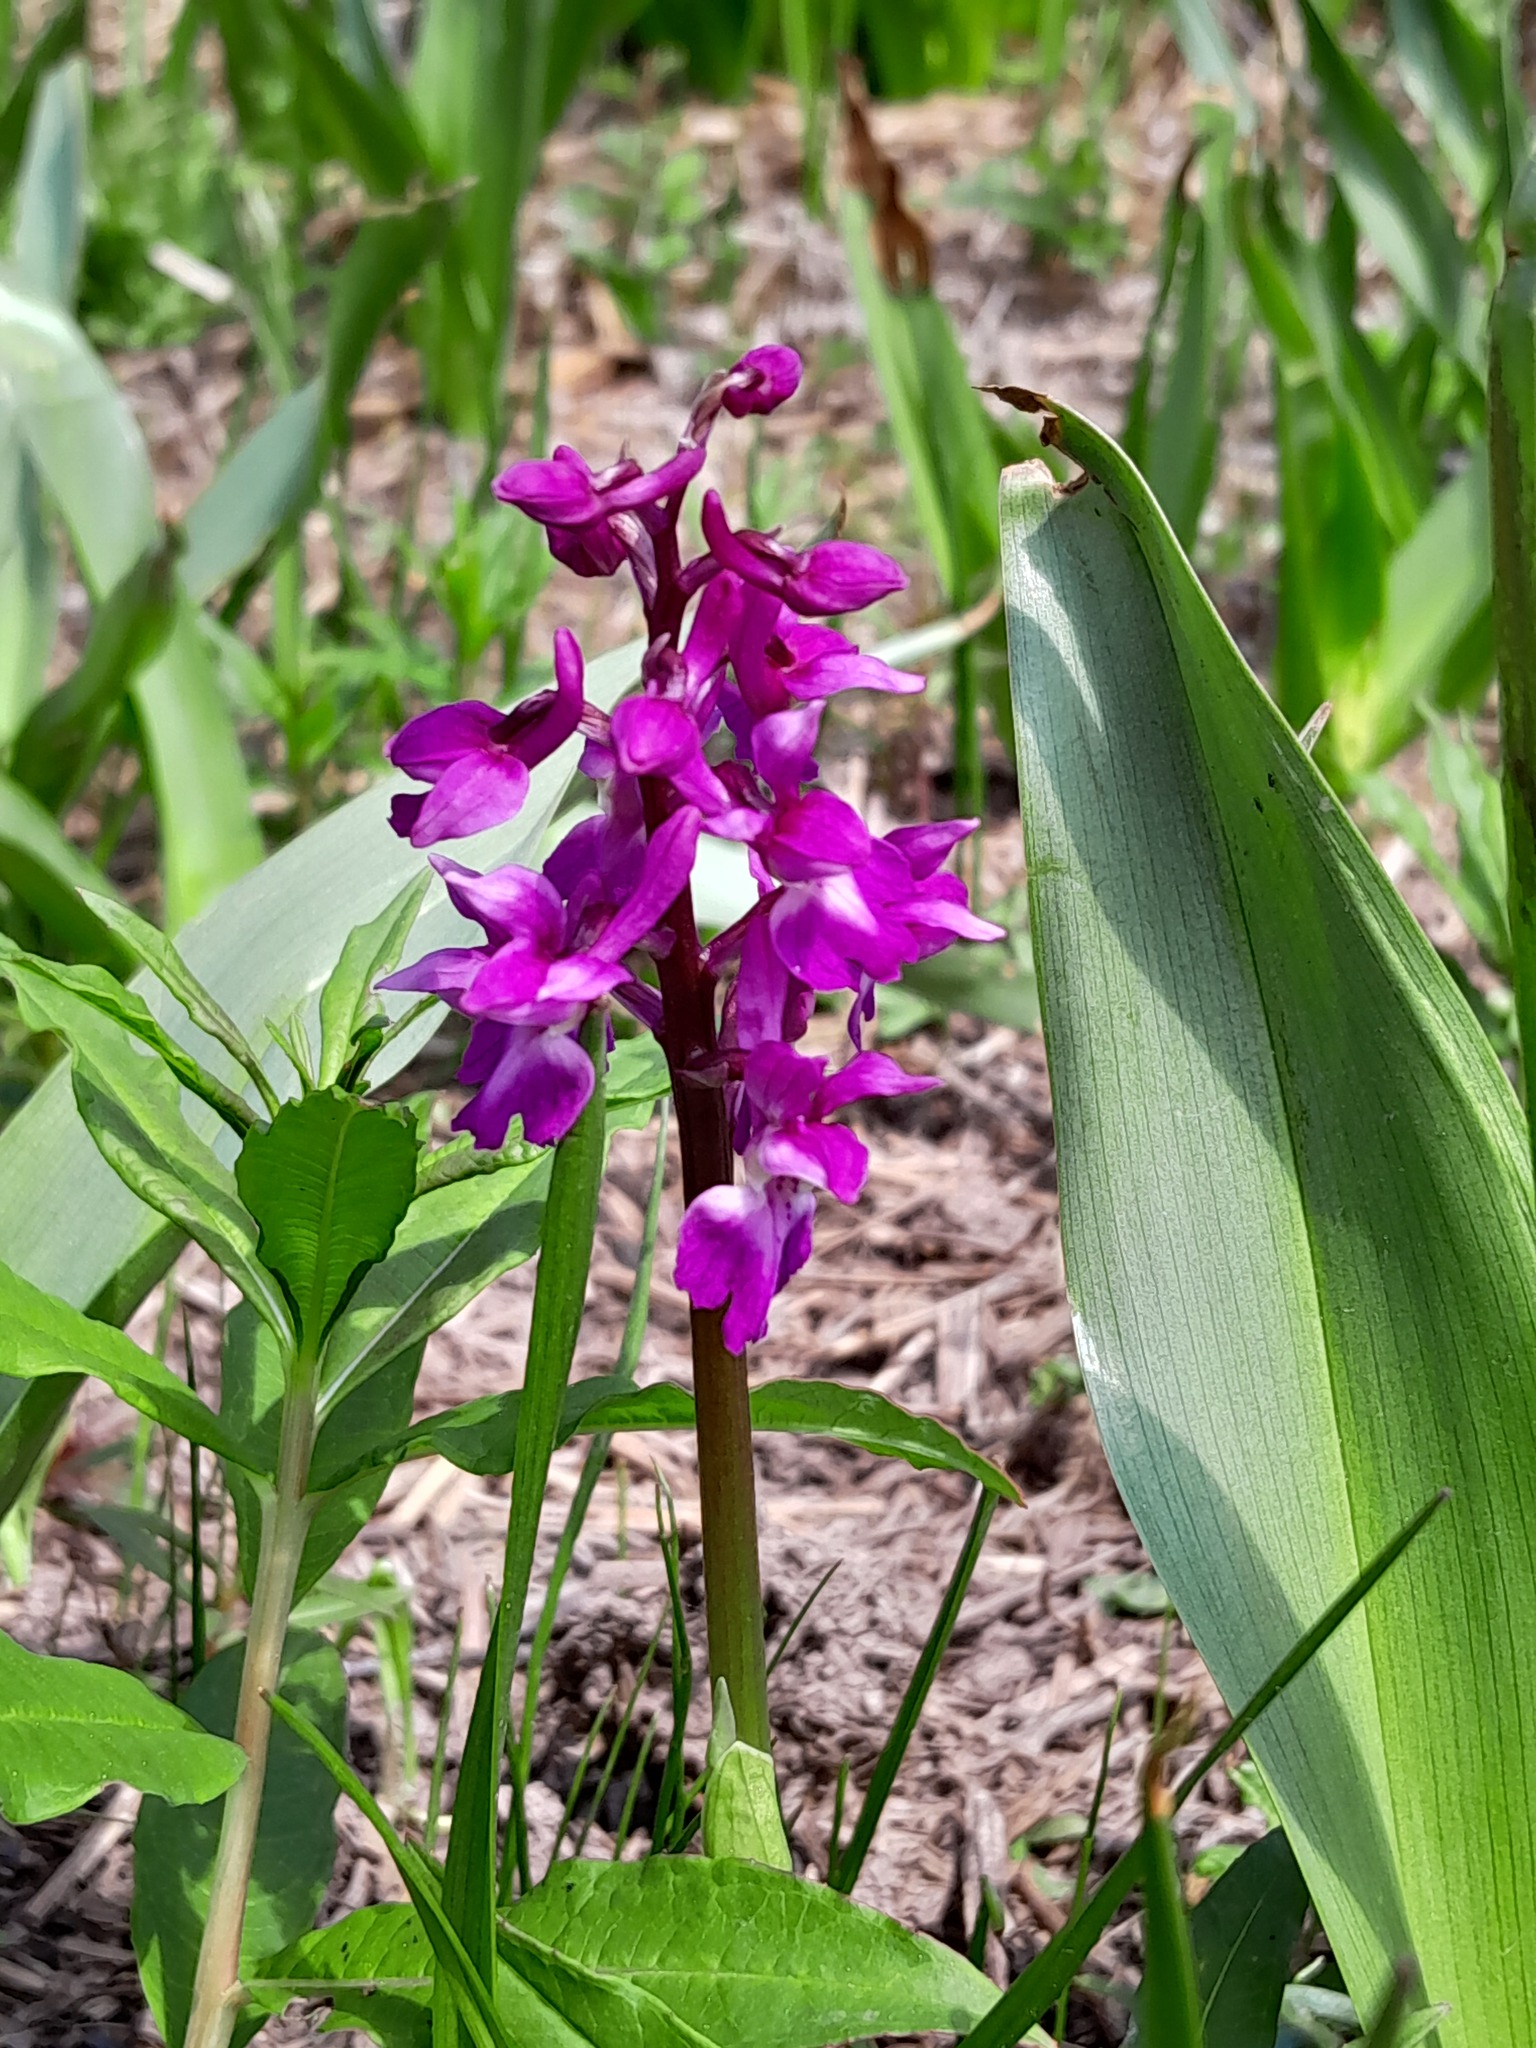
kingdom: Plantae
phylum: Tracheophyta
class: Liliopsida
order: Asparagales
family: Orchidaceae
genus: Orchis
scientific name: Orchis mascula
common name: Early-purple orchid
